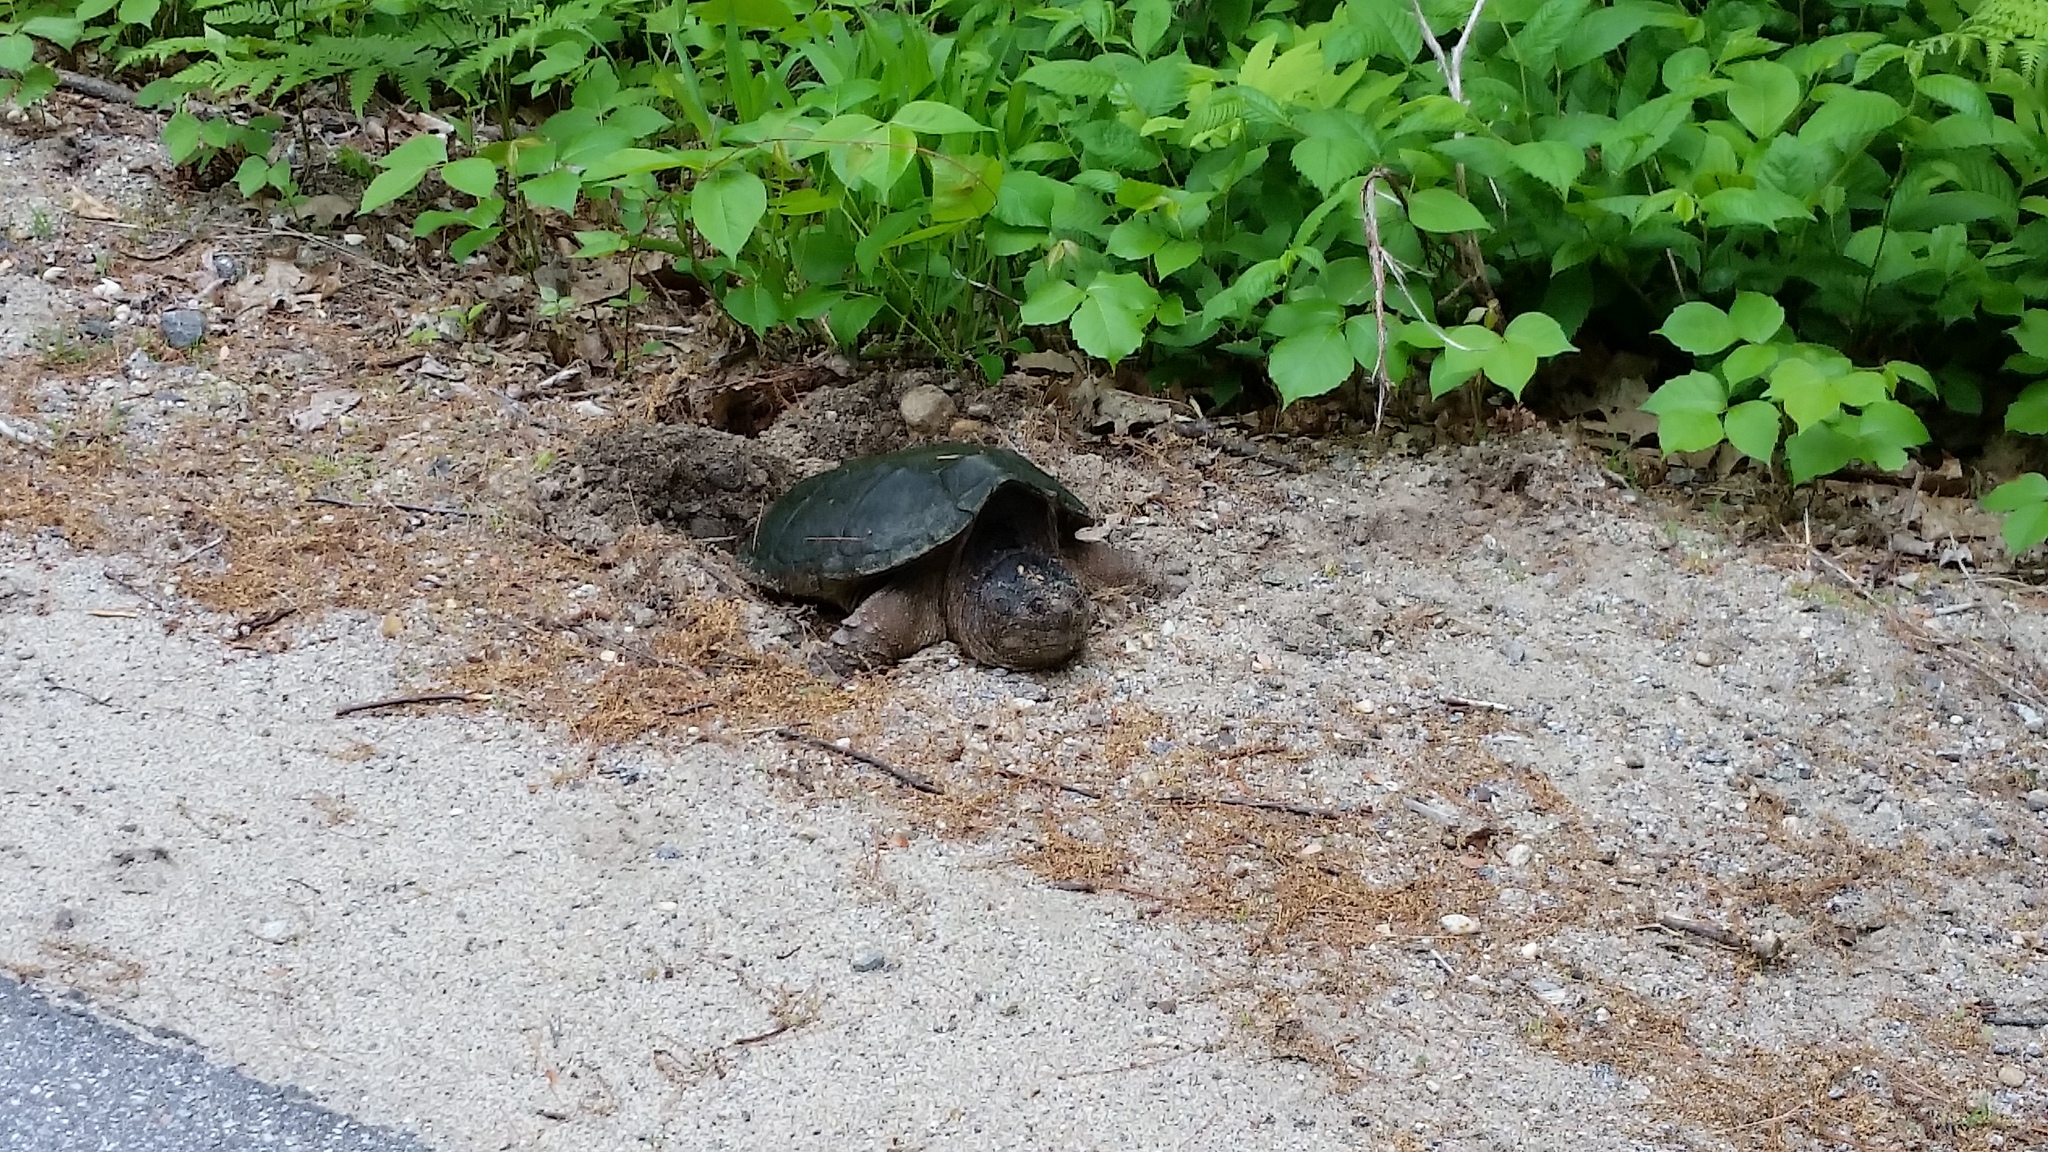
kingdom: Animalia
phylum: Chordata
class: Testudines
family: Chelydridae
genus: Chelydra
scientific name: Chelydra serpentina
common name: Common snapping turtle
